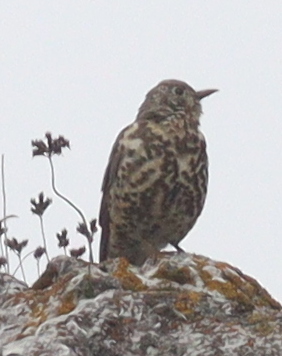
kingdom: Animalia
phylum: Chordata
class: Aves
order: Passeriformes
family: Turdidae
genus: Turdus
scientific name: Turdus viscivorus
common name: Mistle thrush
